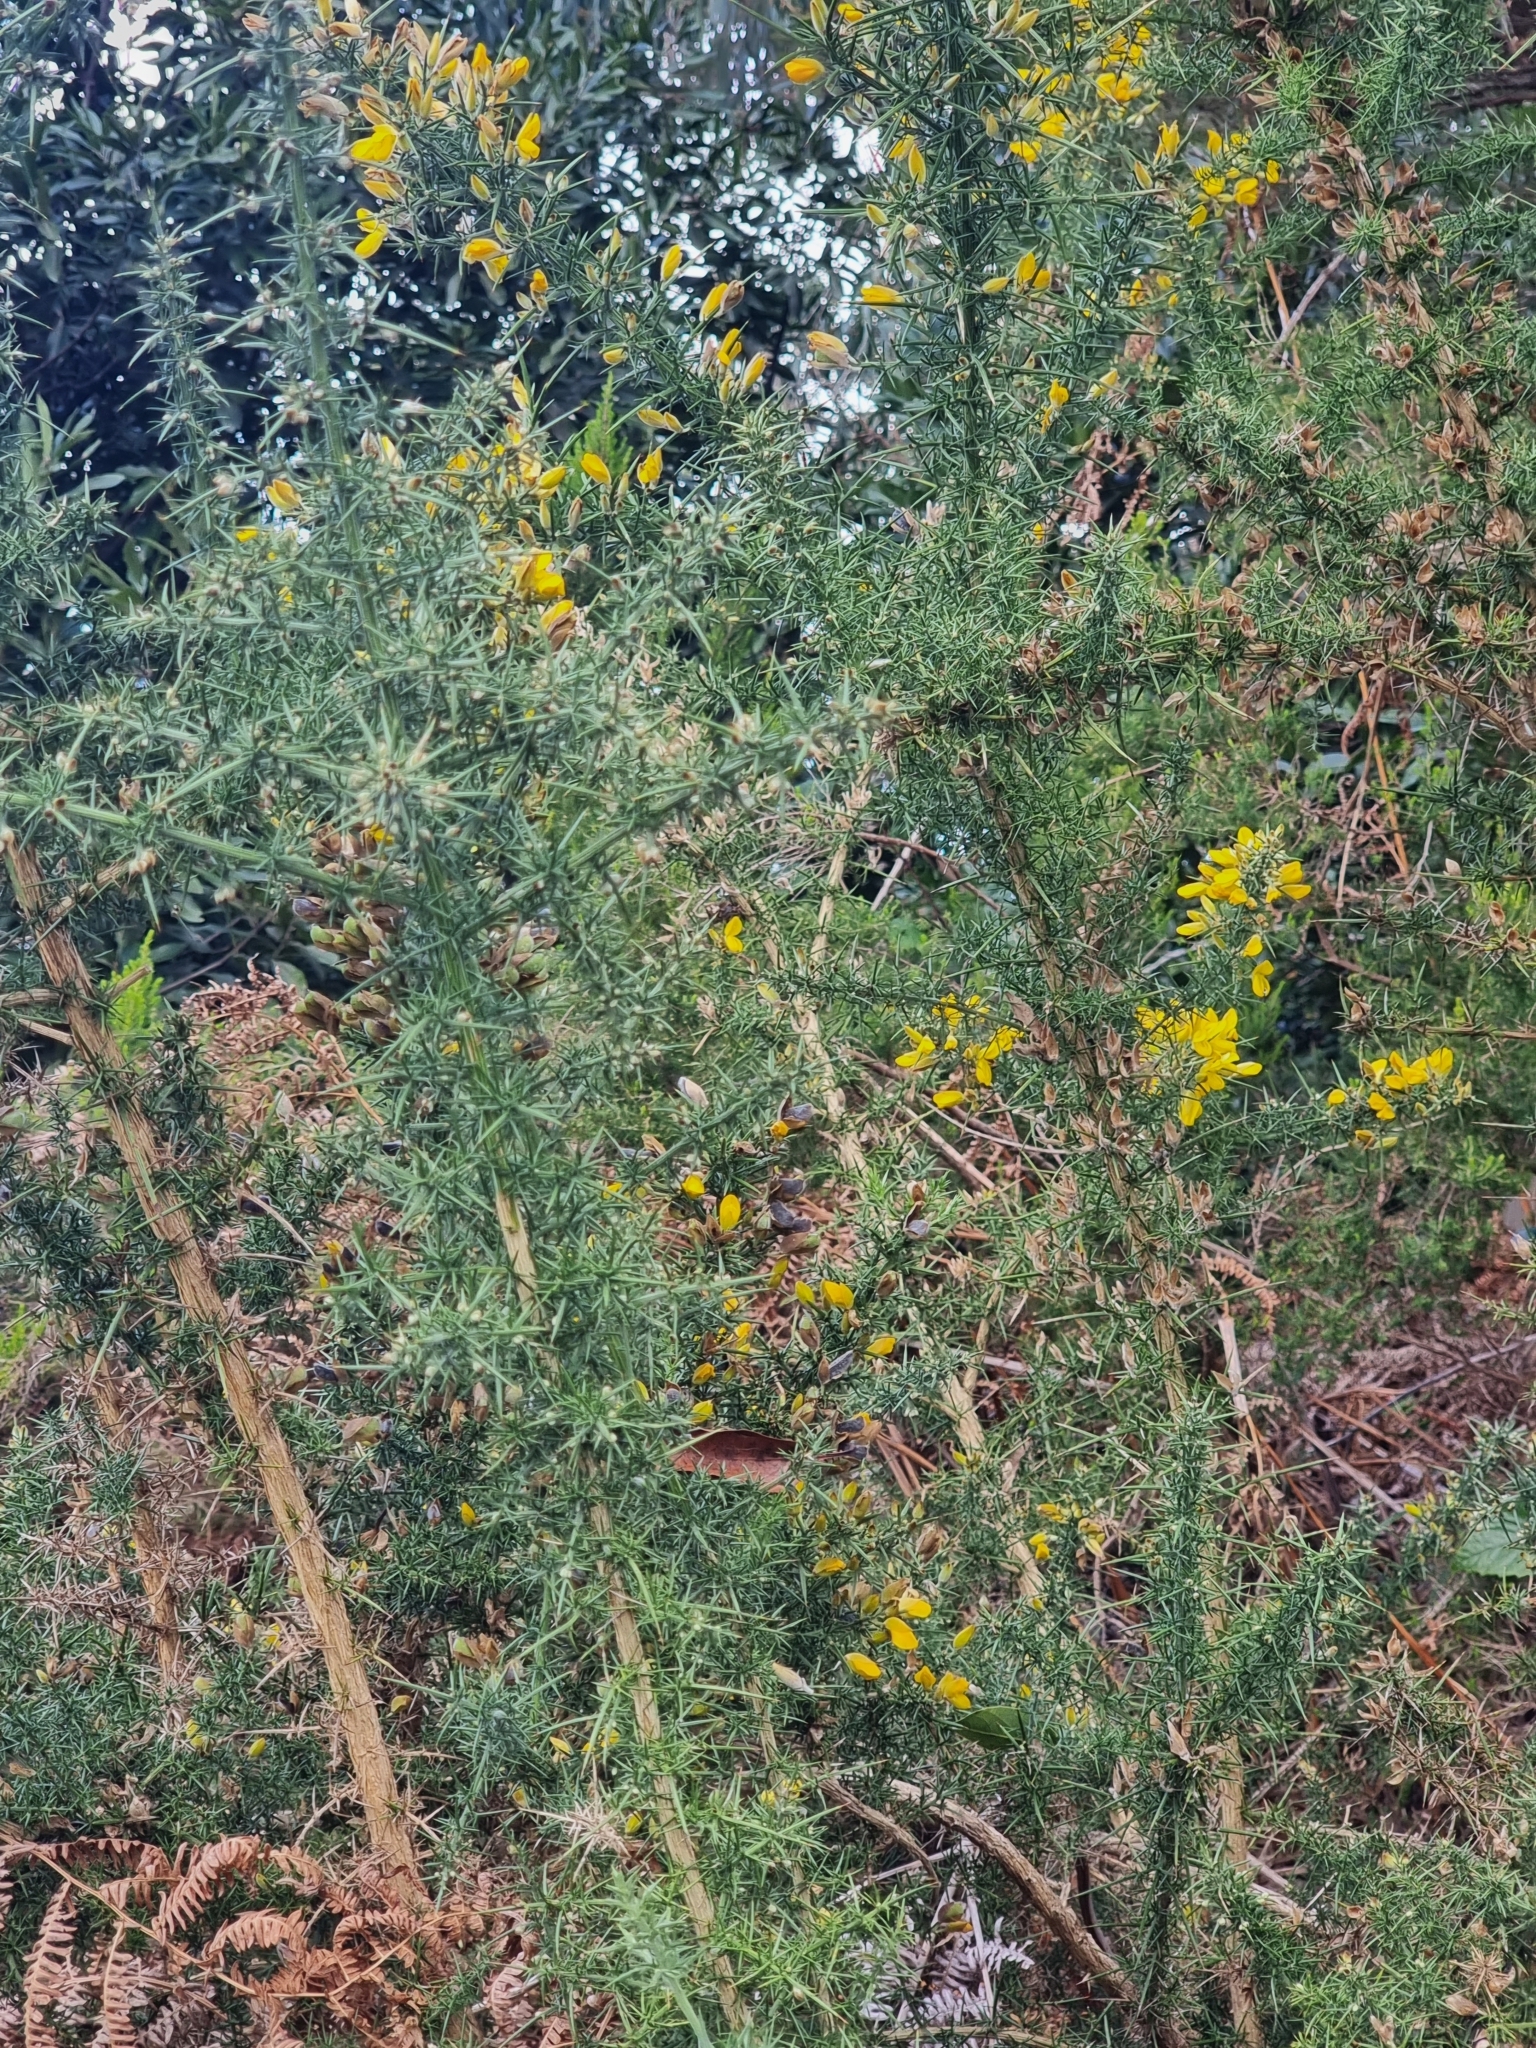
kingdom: Plantae
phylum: Tracheophyta
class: Magnoliopsida
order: Fabales
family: Fabaceae
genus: Ulex
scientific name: Ulex europaeus
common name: Common gorse
